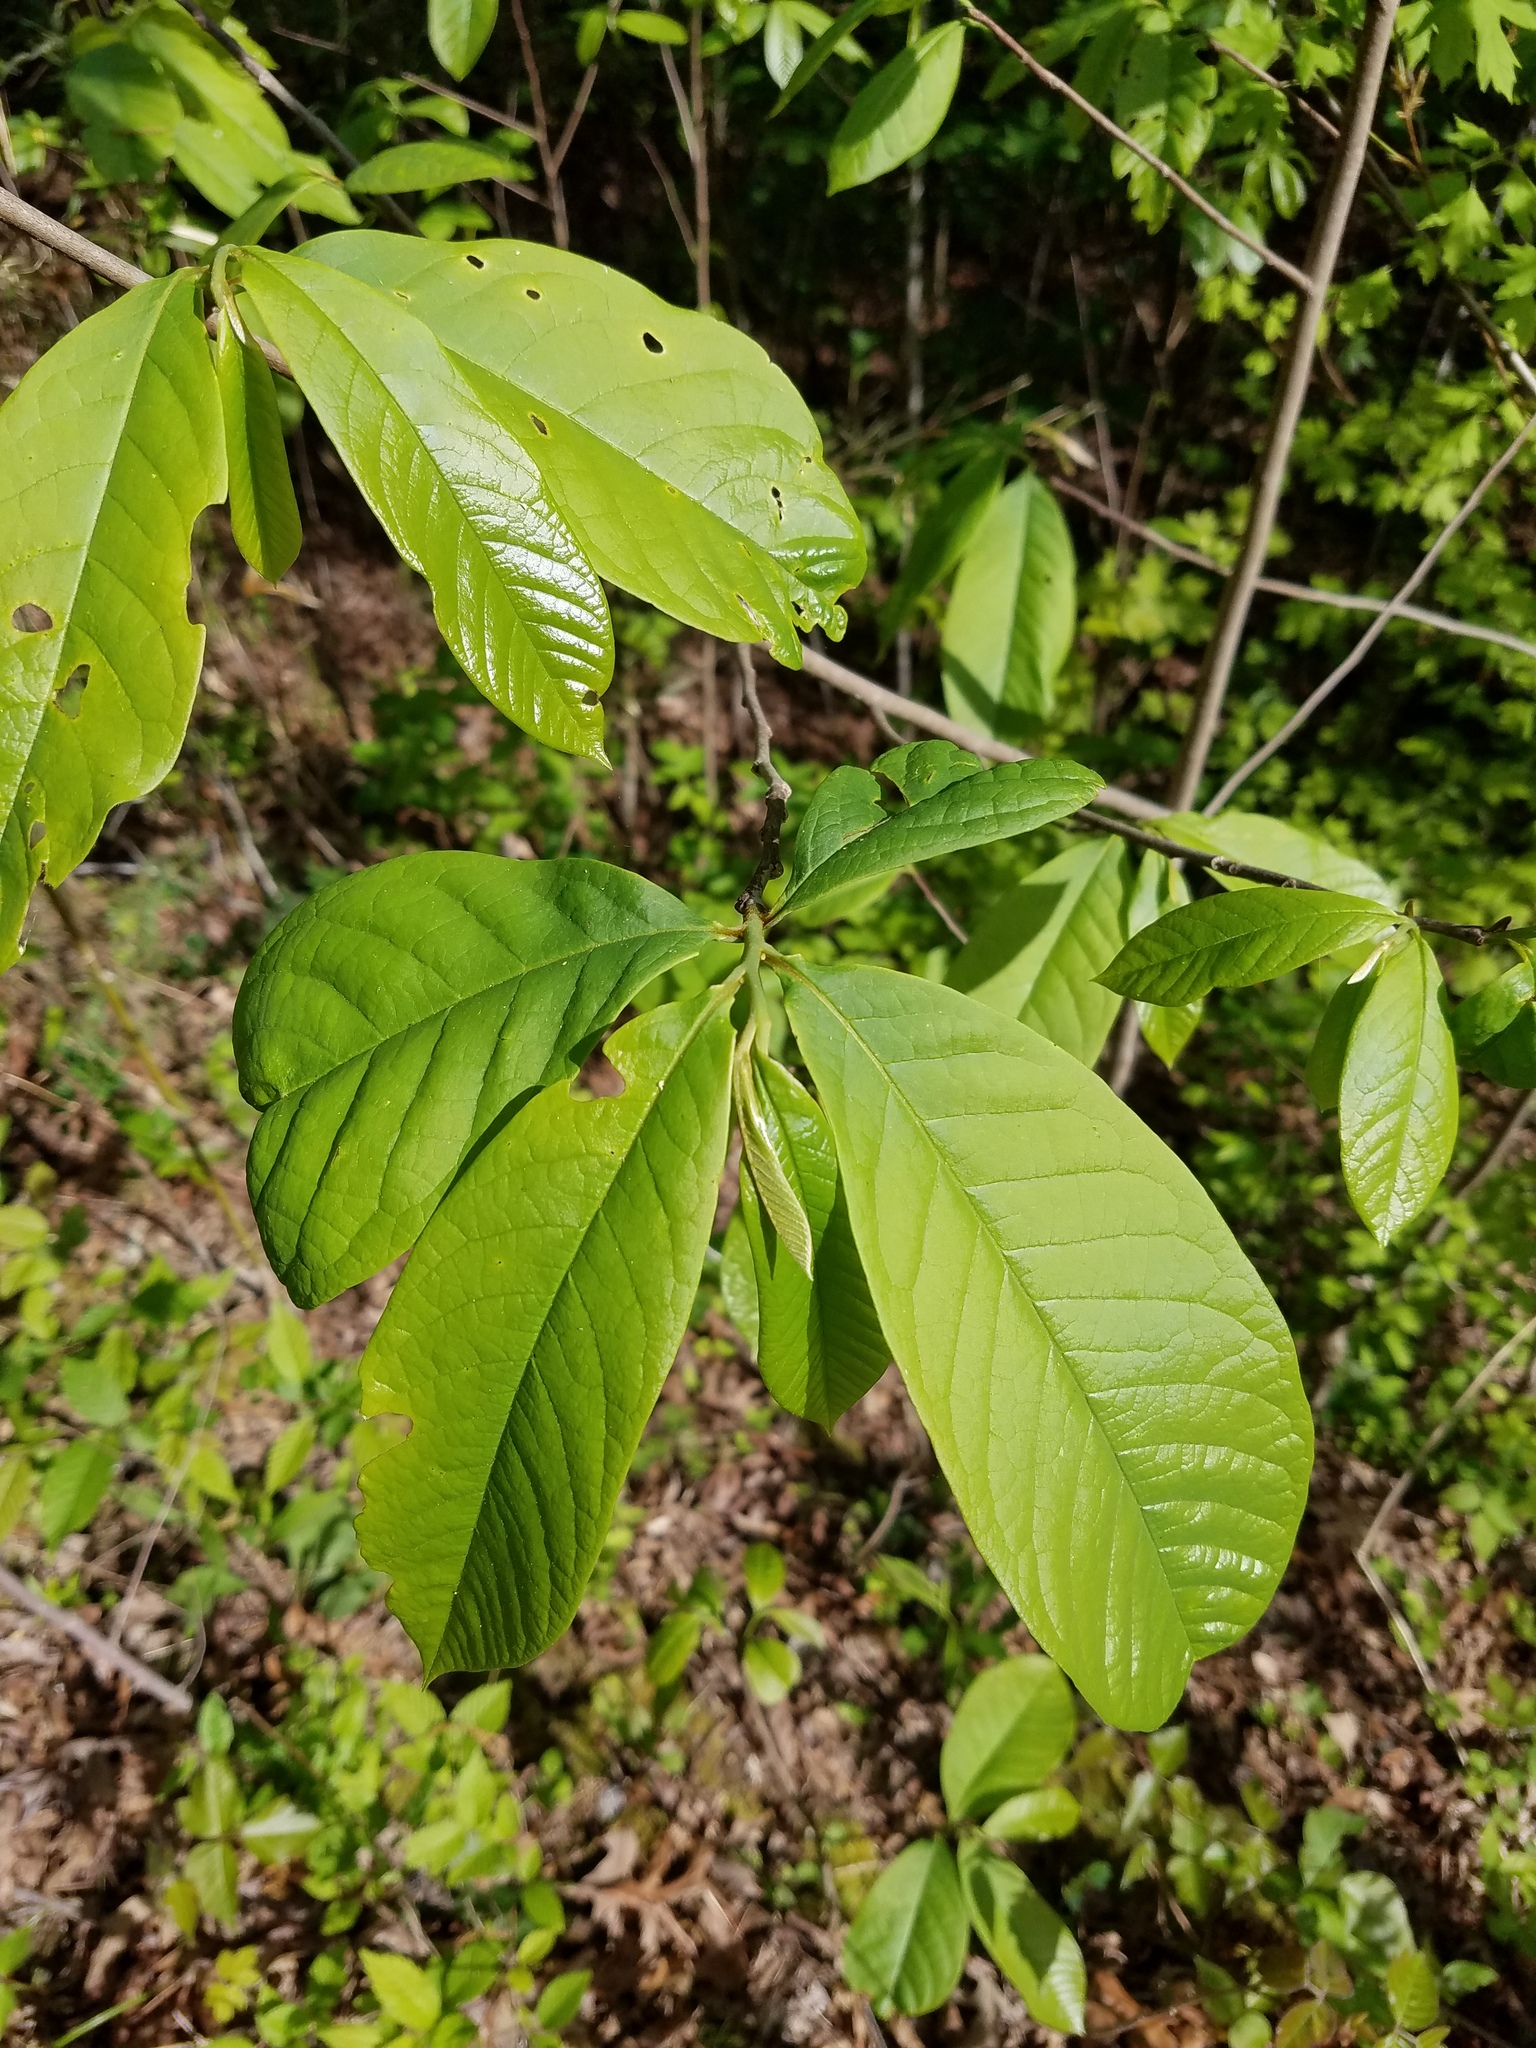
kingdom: Plantae
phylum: Tracheophyta
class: Magnoliopsida
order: Magnoliales
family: Annonaceae
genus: Asimina
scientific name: Asimina triloba
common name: Dog-banana
